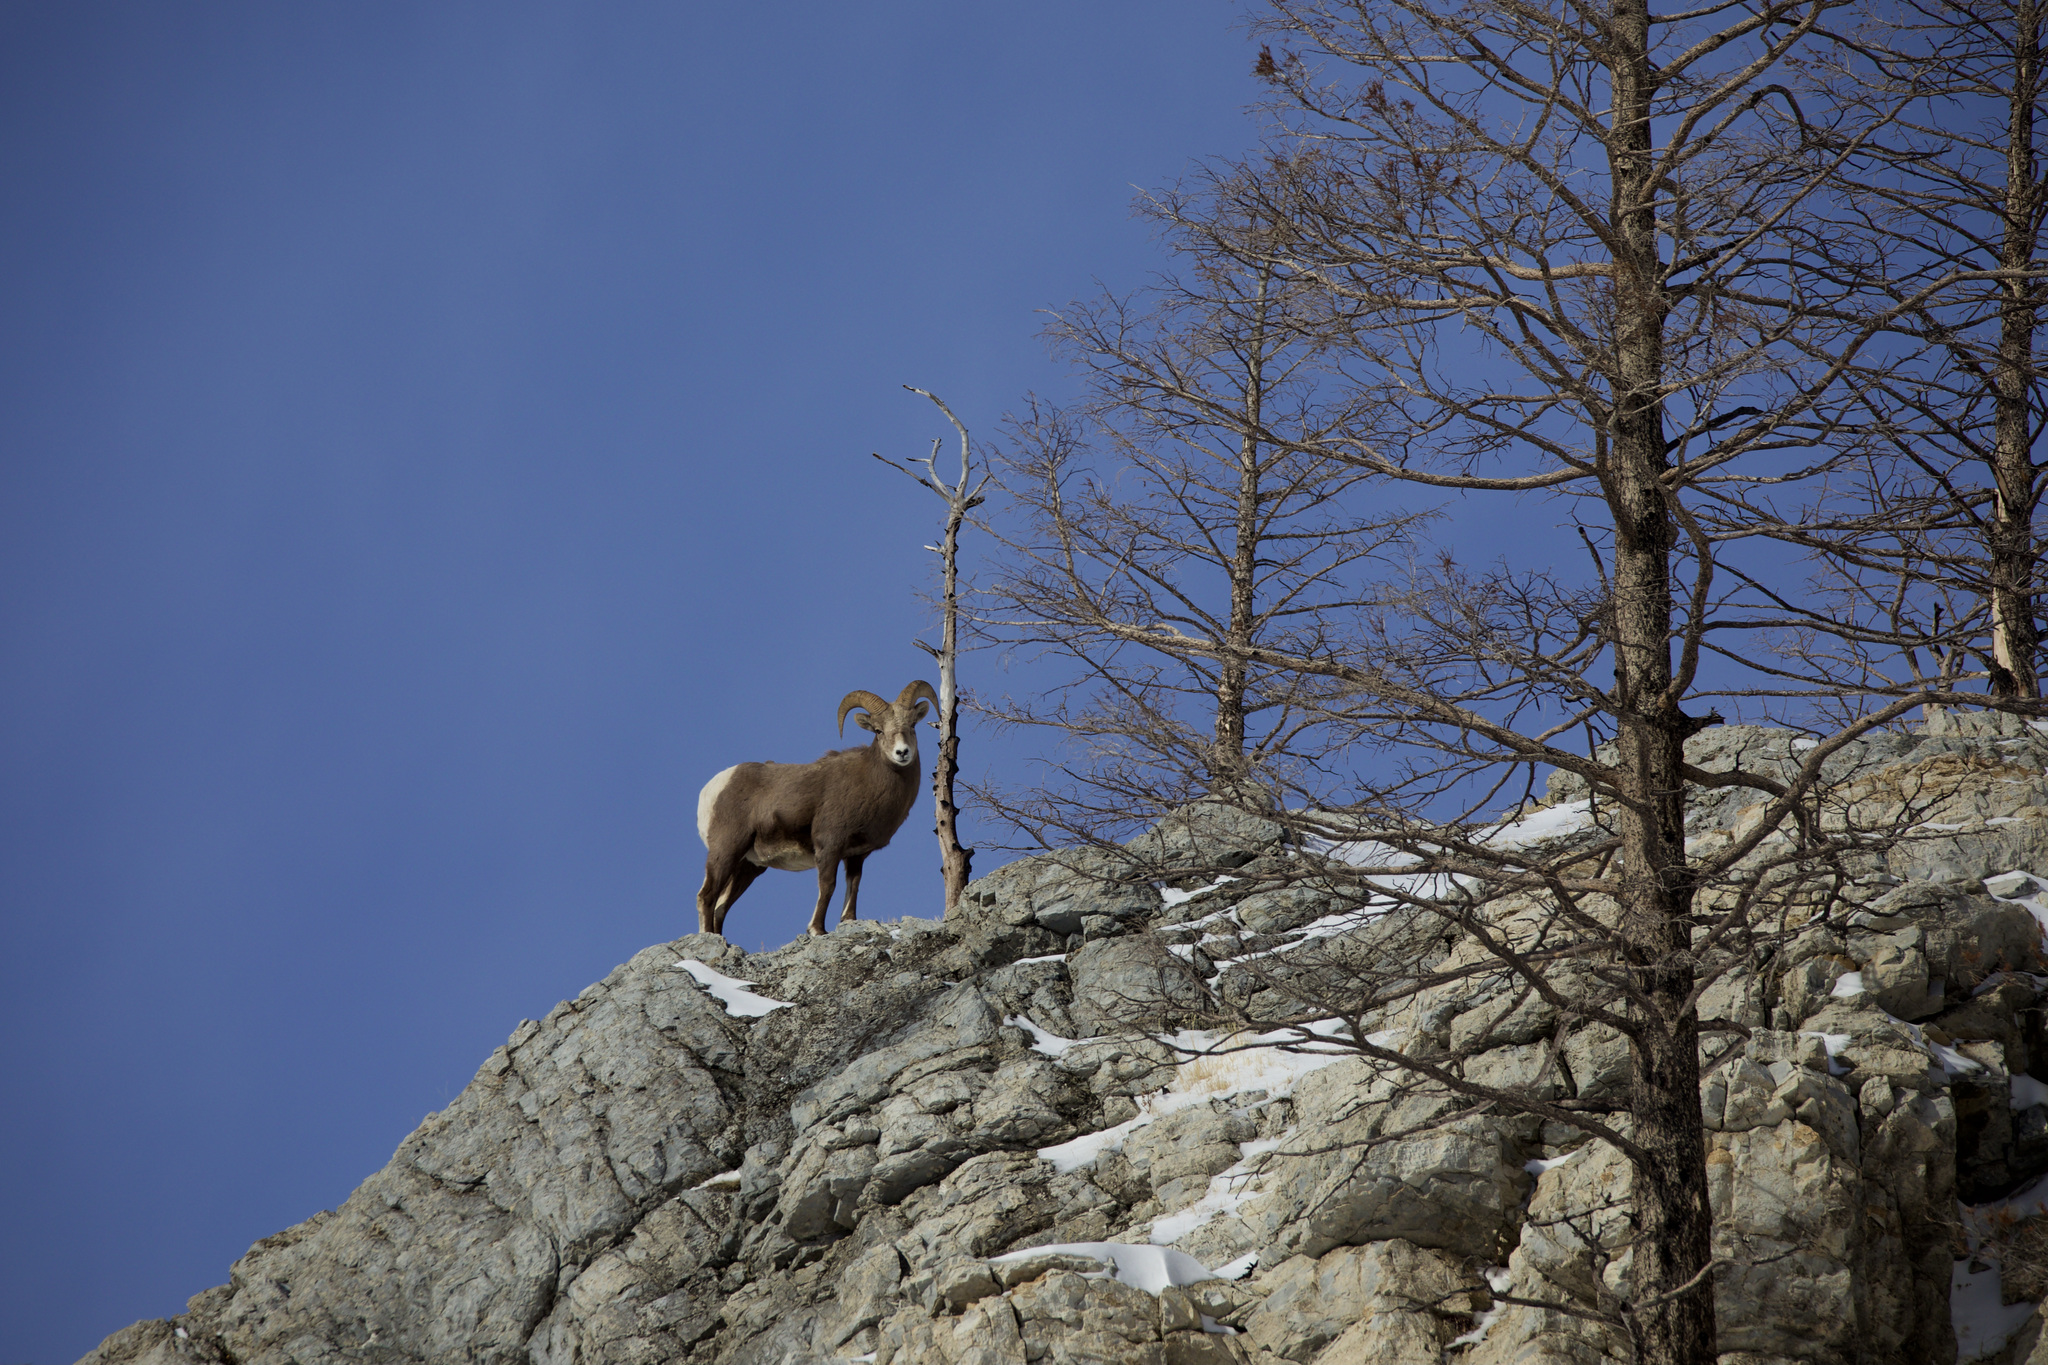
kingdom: Animalia
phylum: Chordata
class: Mammalia
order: Artiodactyla
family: Bovidae
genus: Ovis
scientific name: Ovis canadensis
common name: Bighorn sheep
